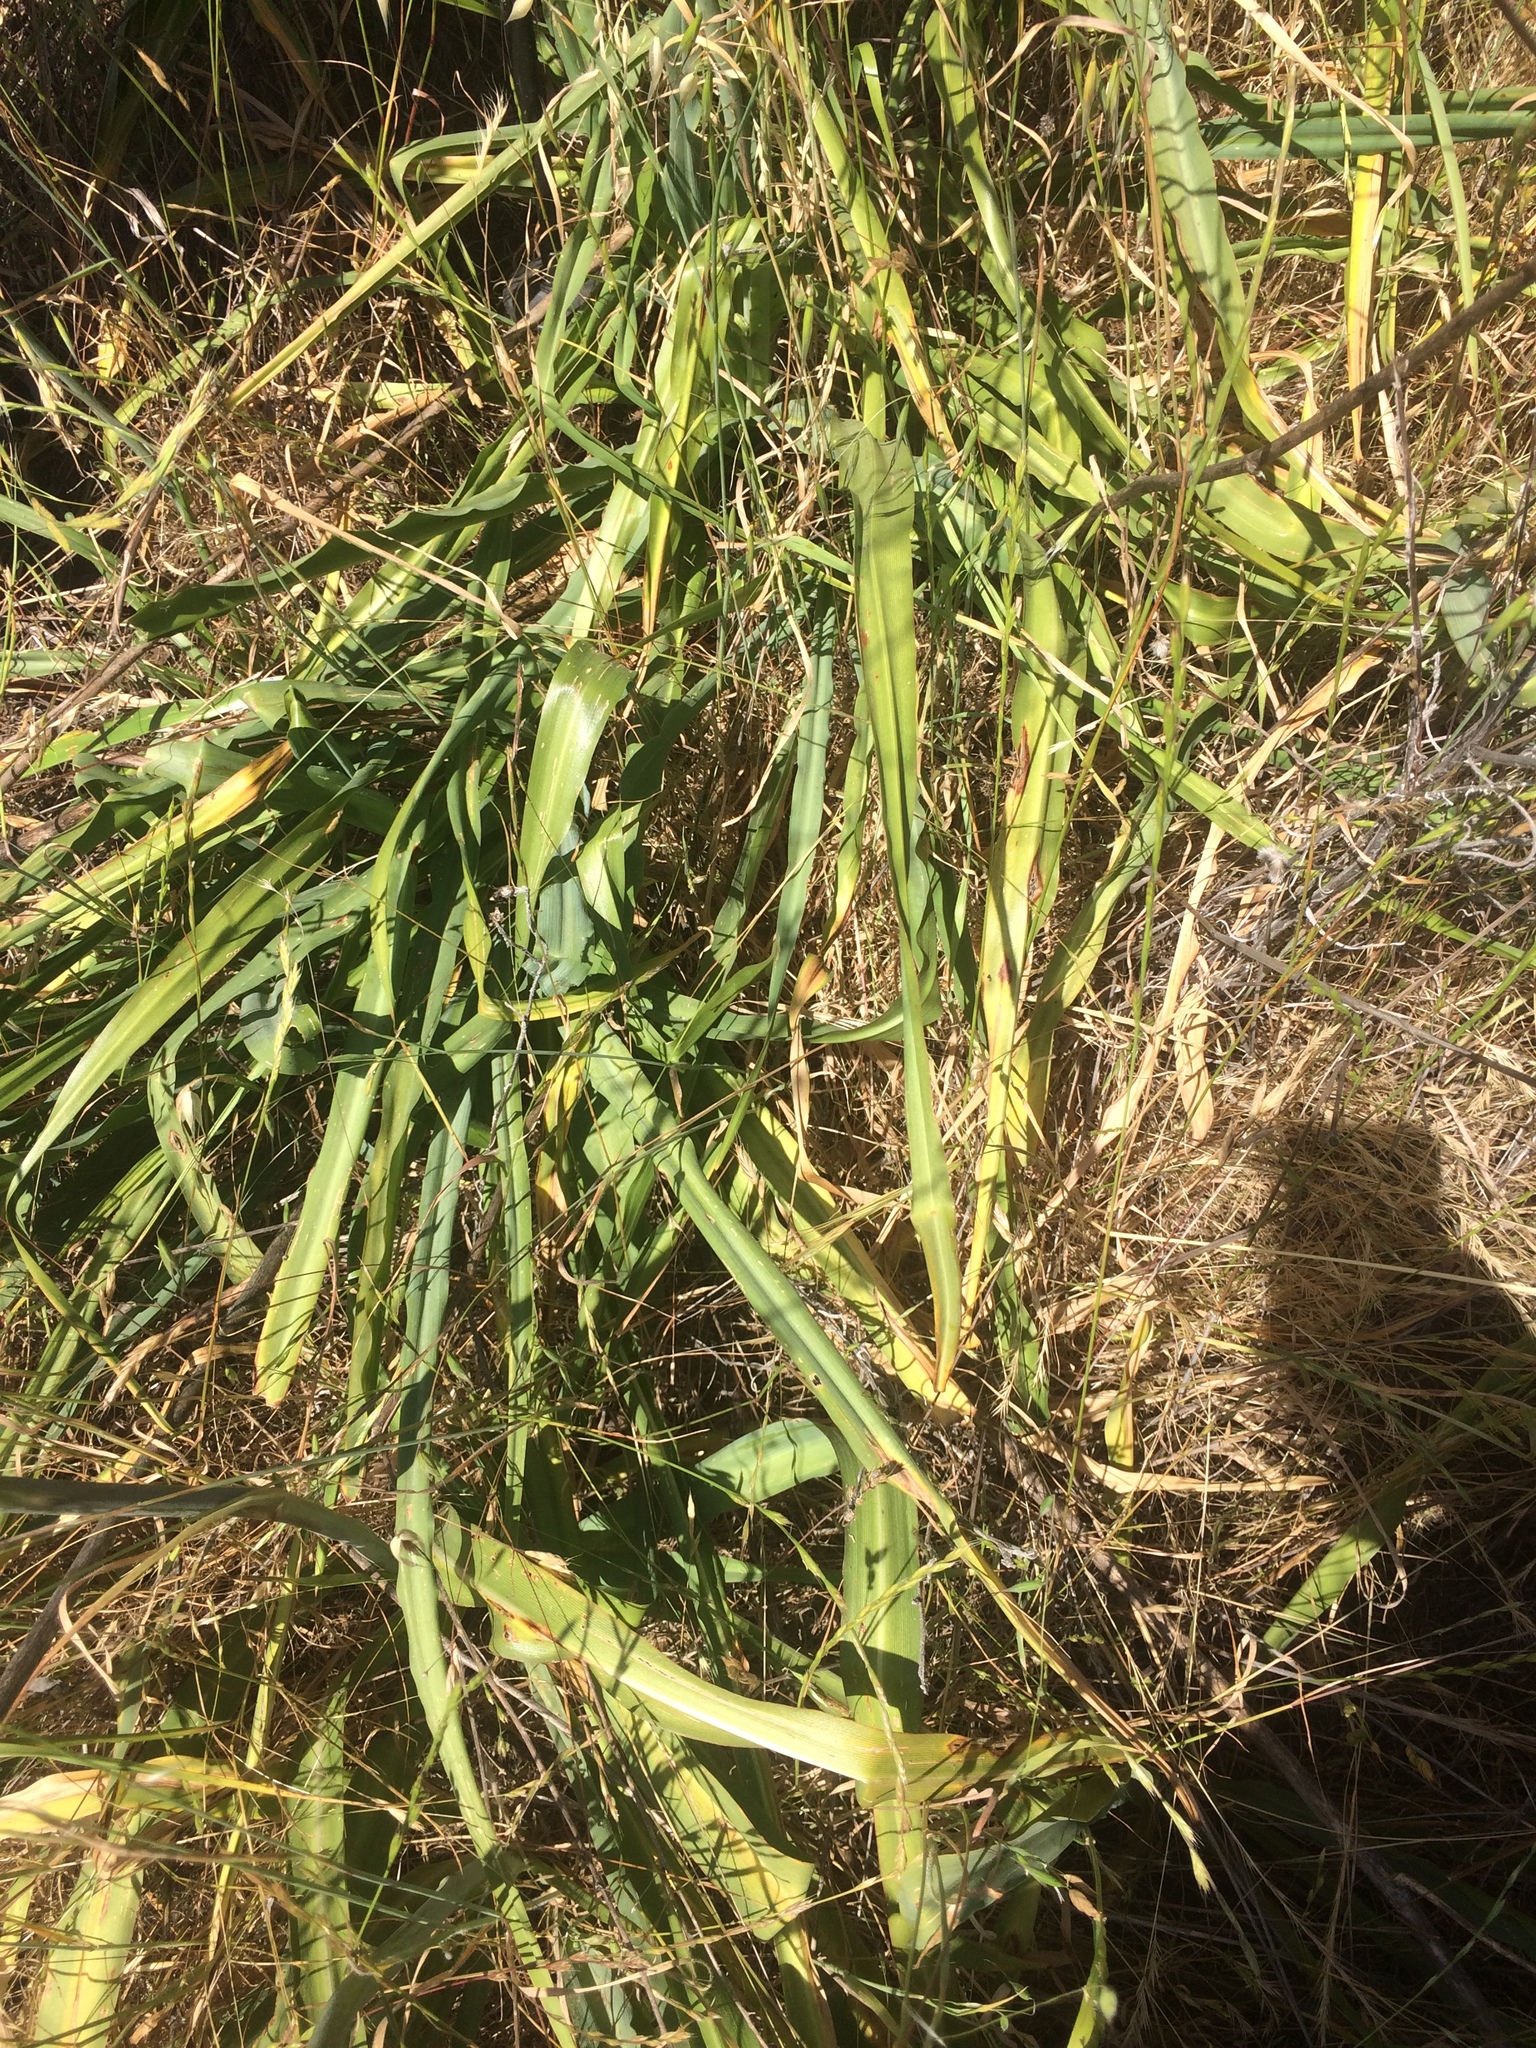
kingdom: Plantae
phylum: Tracheophyta
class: Liliopsida
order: Asparagales
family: Asparagaceae
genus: Chlorogalum
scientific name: Chlorogalum pomeridianum
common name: Amole
